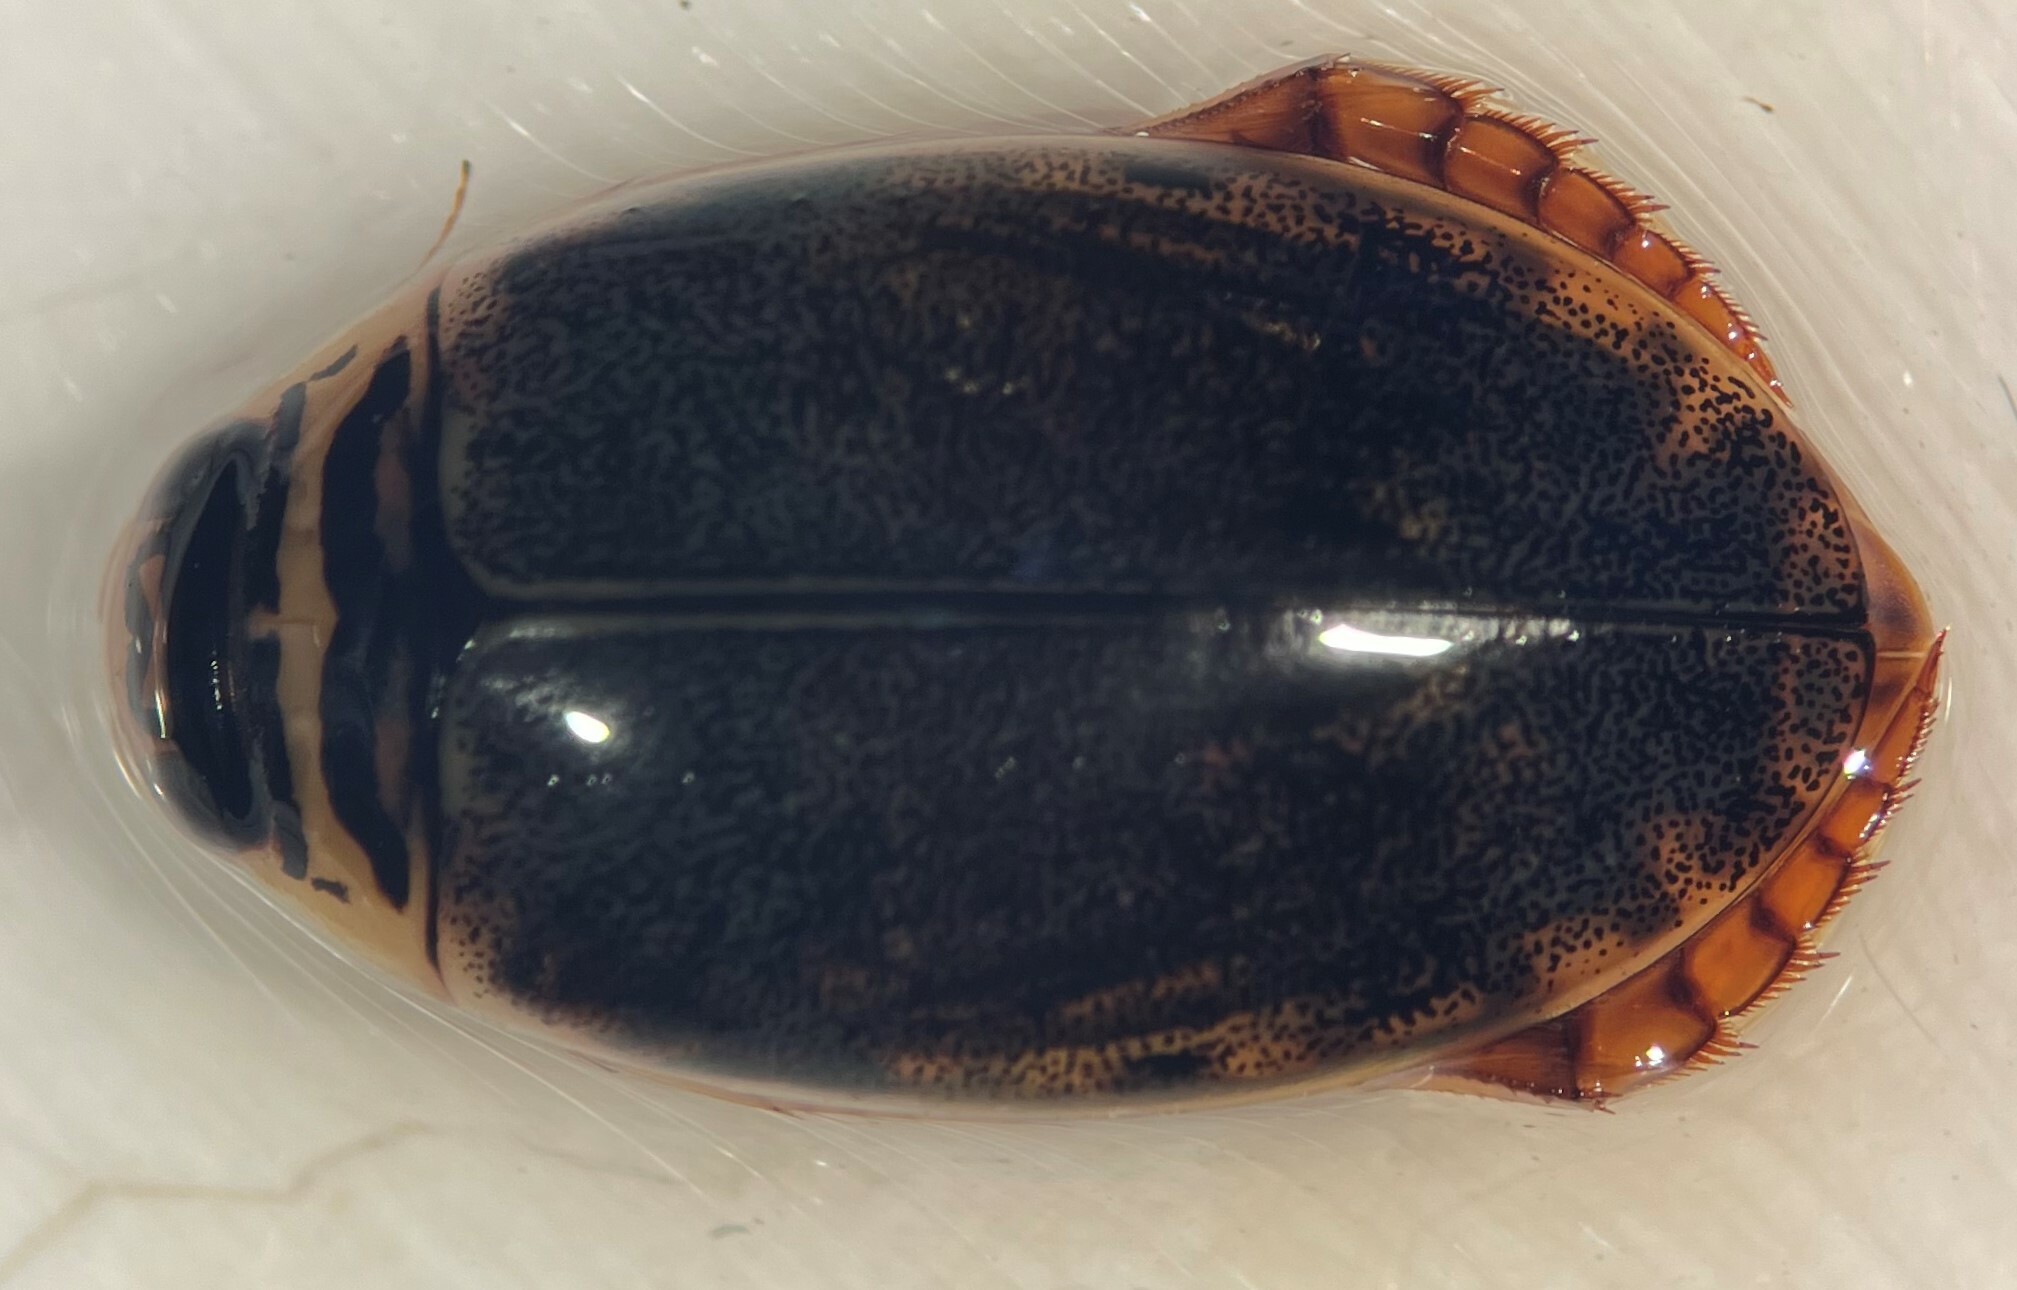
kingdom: Animalia
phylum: Arthropoda
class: Insecta
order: Coleoptera
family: Dytiscidae
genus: Thermonectus
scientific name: Thermonectus nigrofasciatus
